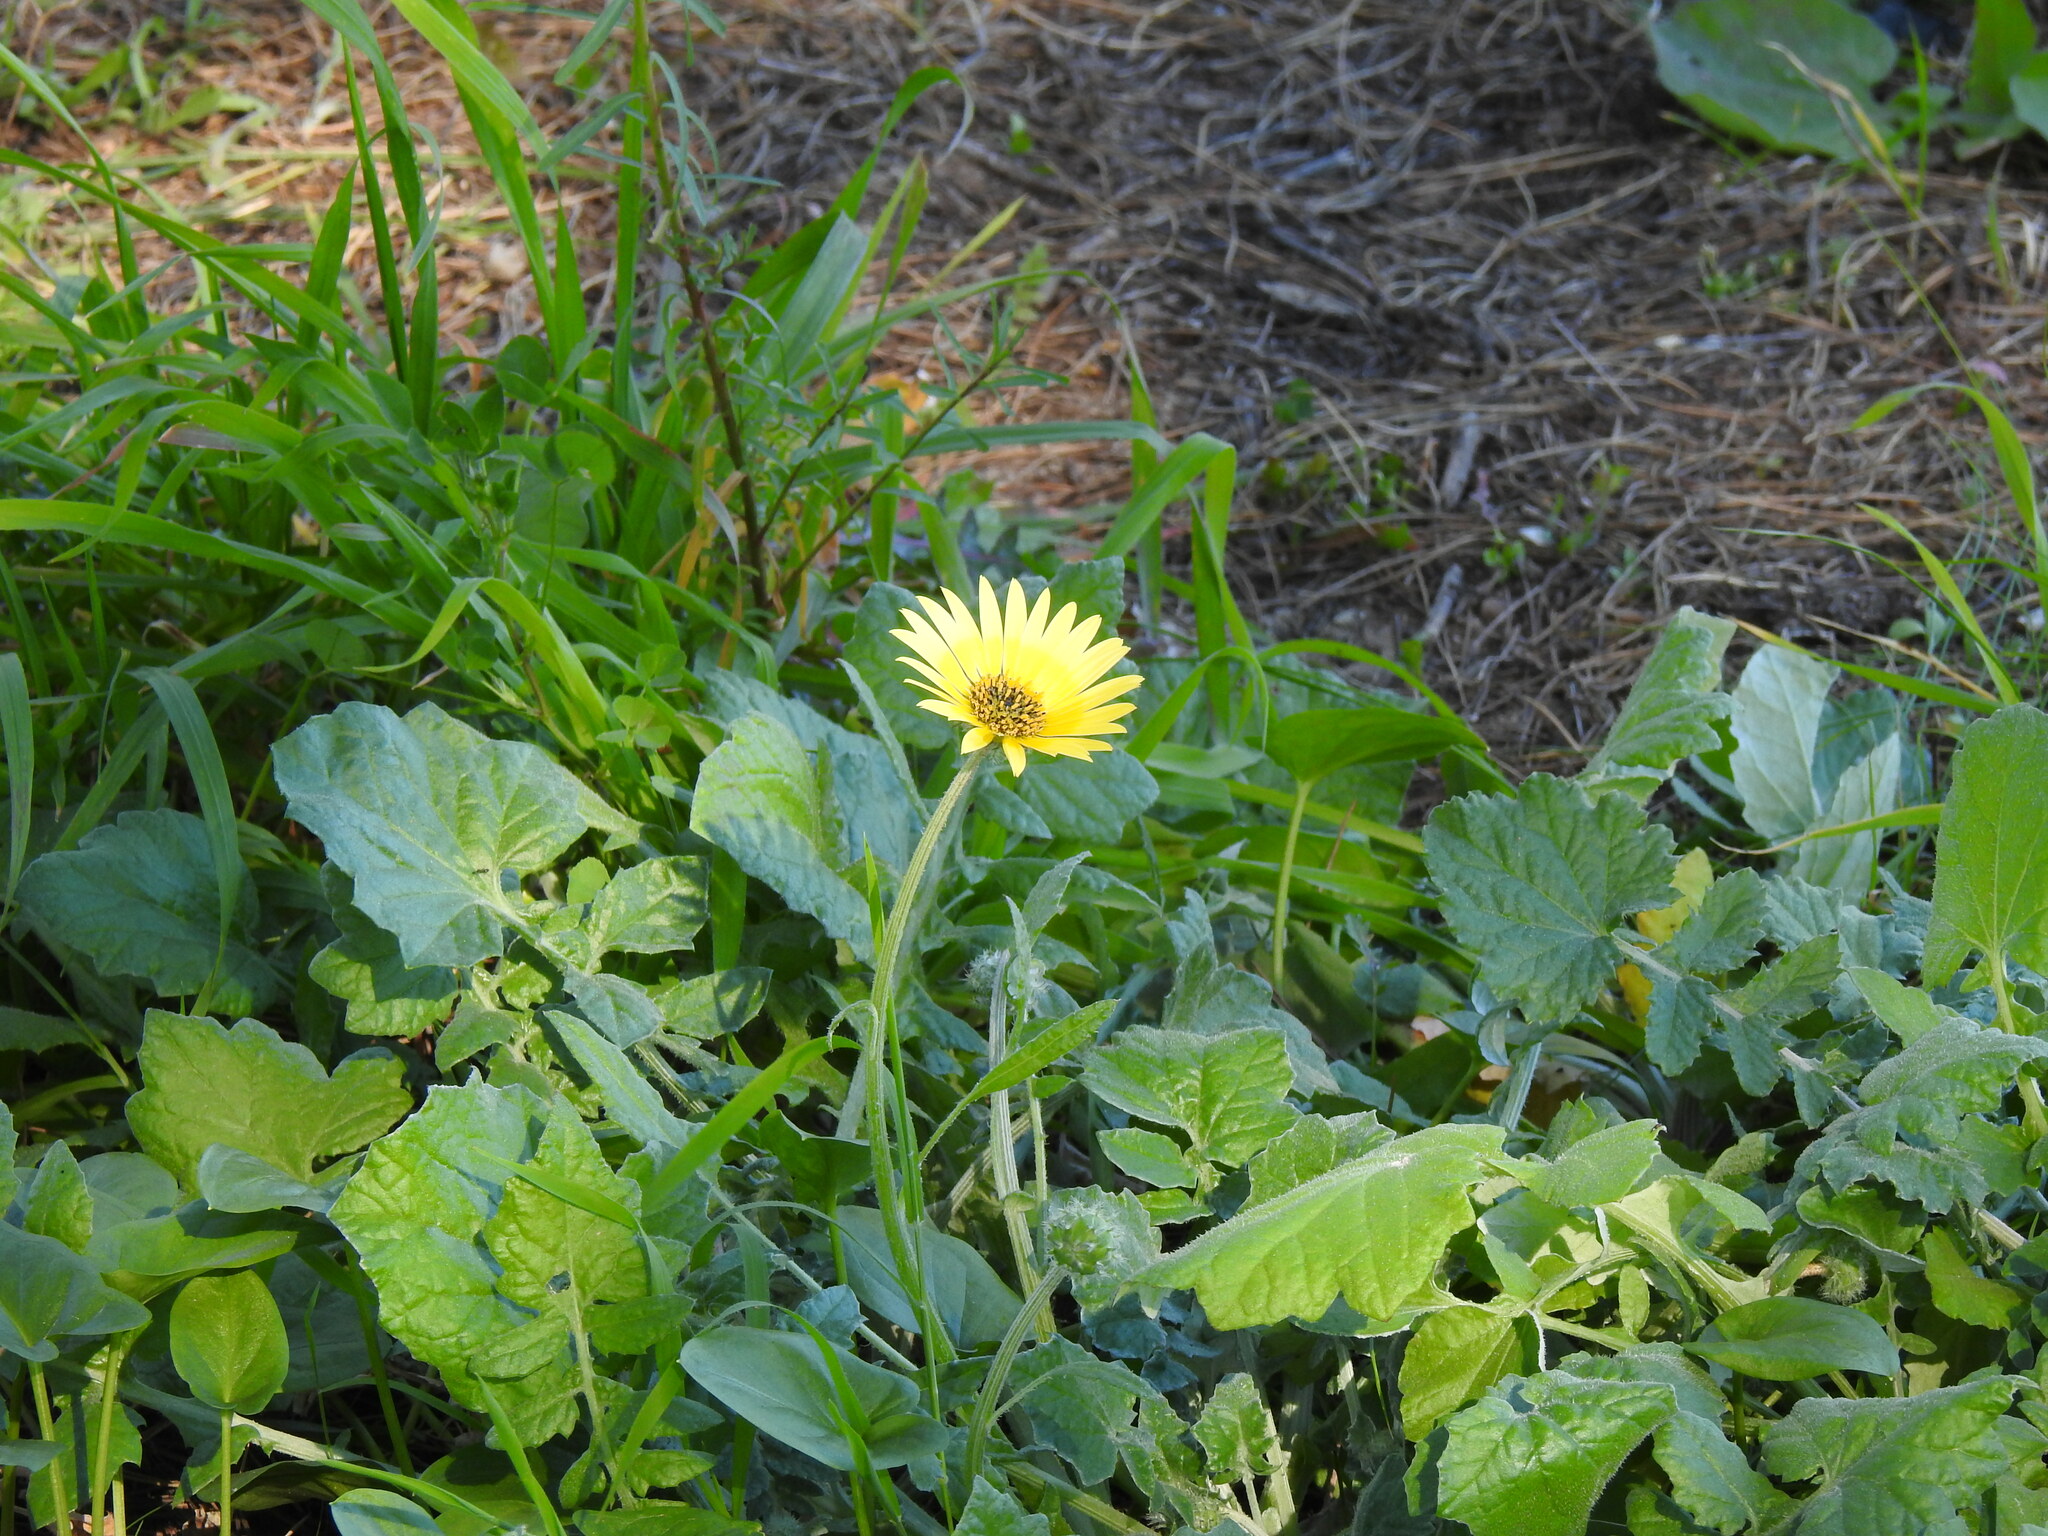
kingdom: Plantae
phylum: Tracheophyta
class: Magnoliopsida
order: Asterales
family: Asteraceae
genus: Arctotheca
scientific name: Arctotheca calendula
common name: Capeweed
